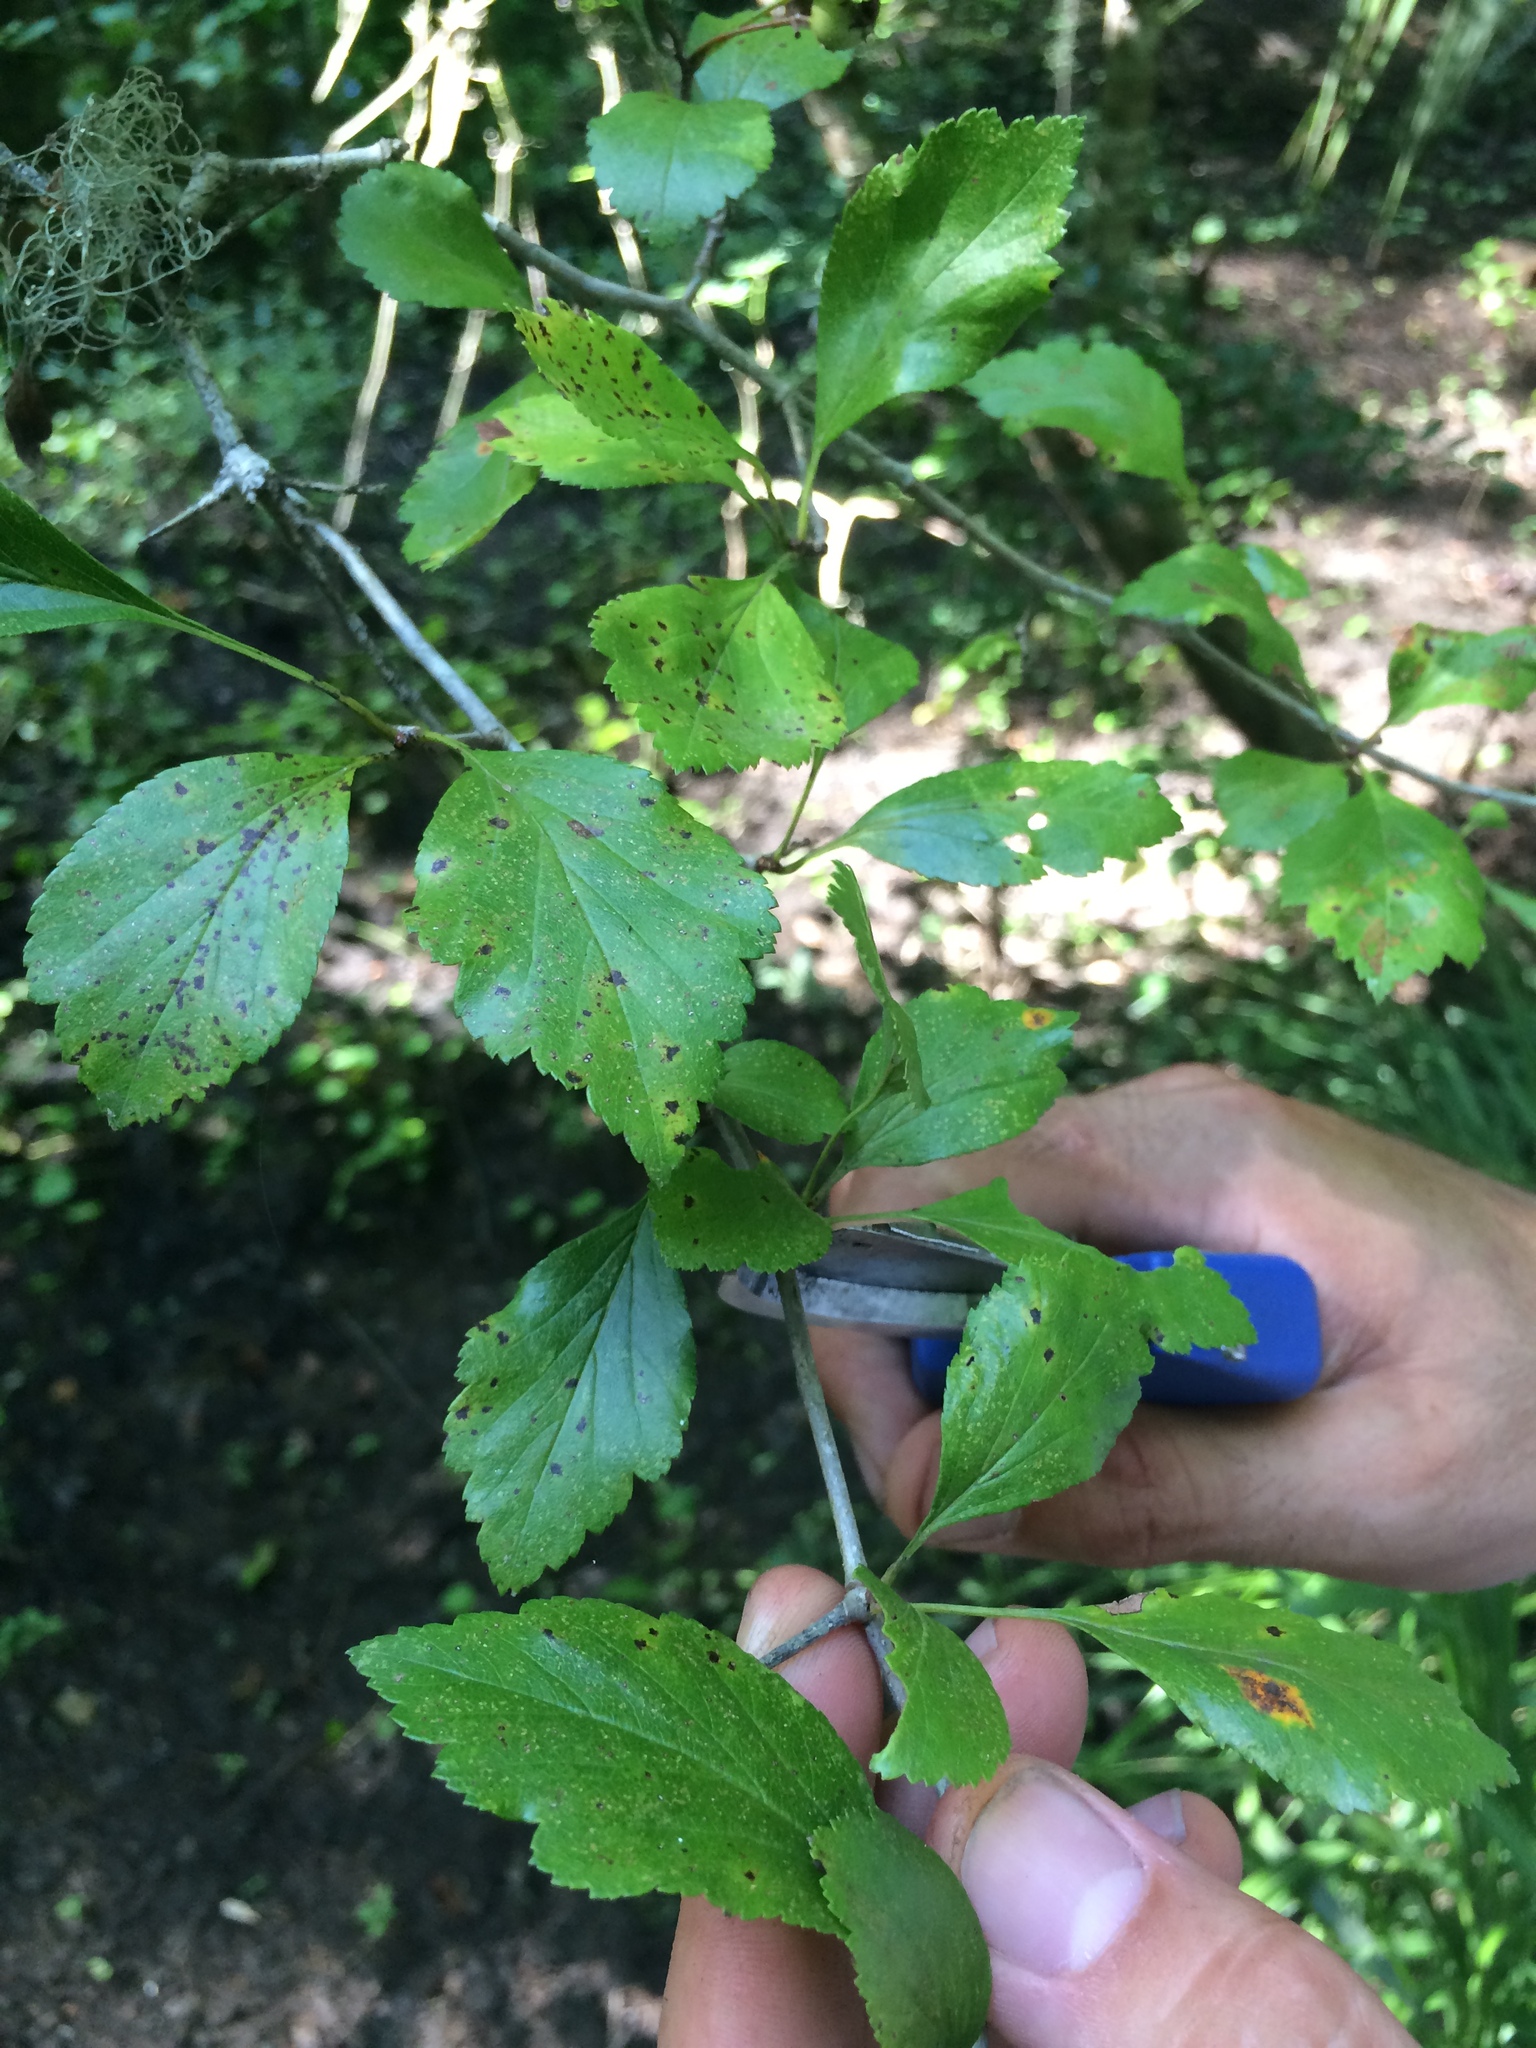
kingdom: Plantae
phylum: Tracheophyta
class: Magnoliopsida
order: Rosales
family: Rosaceae
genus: Crataegus
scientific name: Crataegus viridis
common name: Southernthorn
